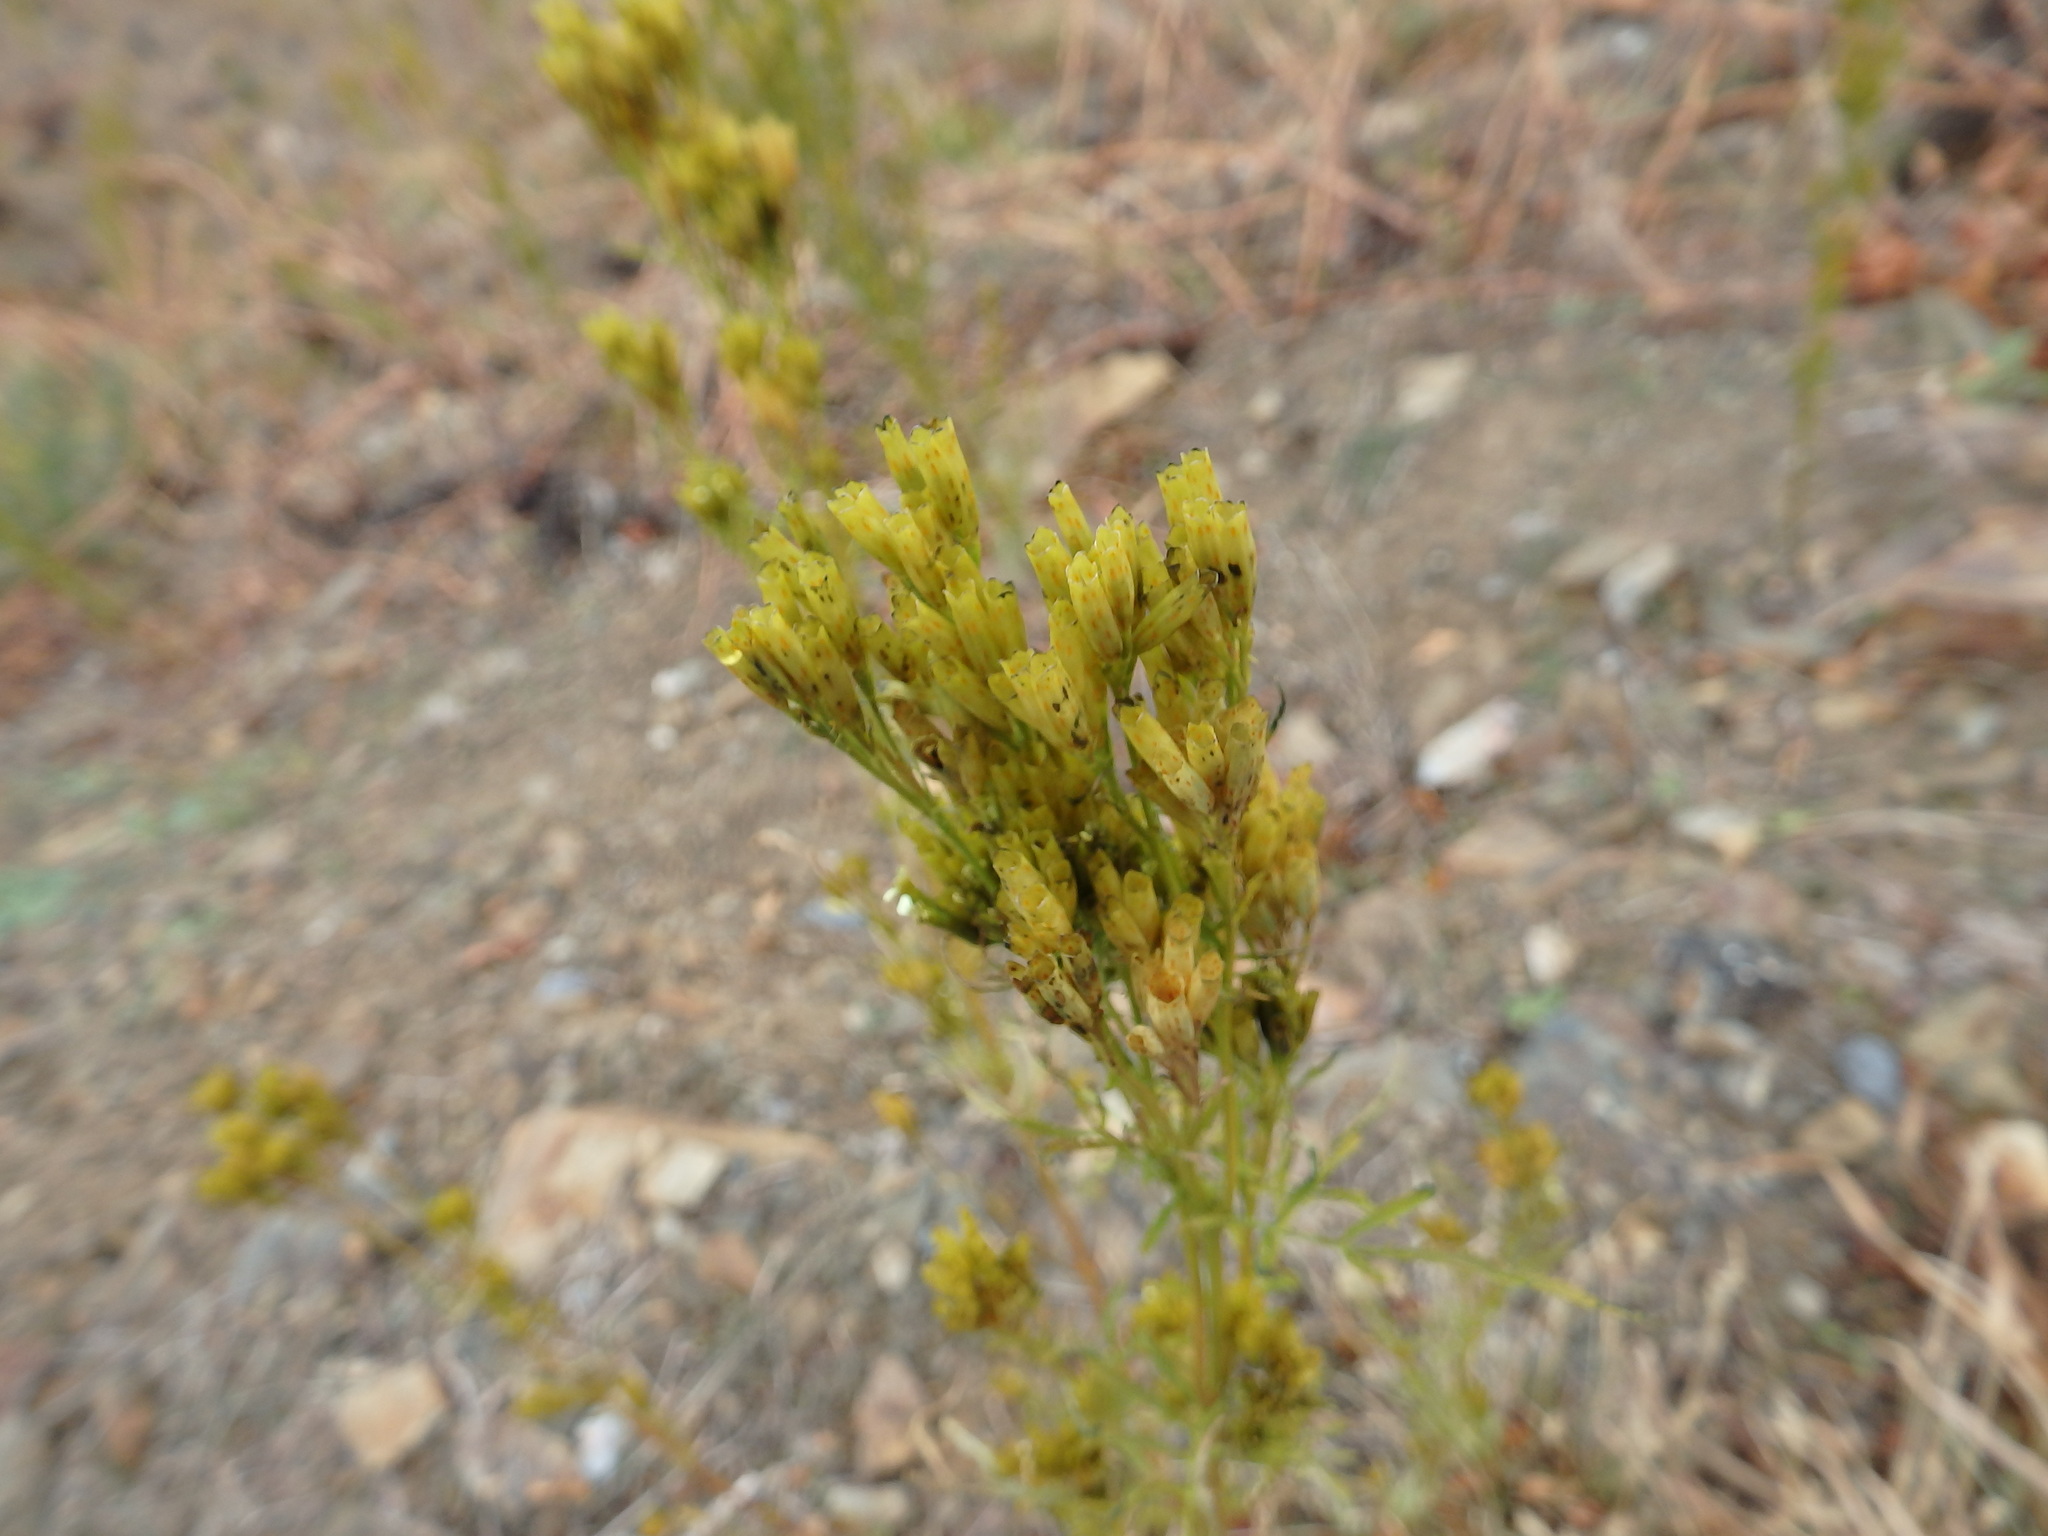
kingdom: Plantae
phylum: Tracheophyta
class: Magnoliopsida
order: Asterales
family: Asteraceae
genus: Tagetes
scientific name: Tagetes minuta
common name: Muster john henry
